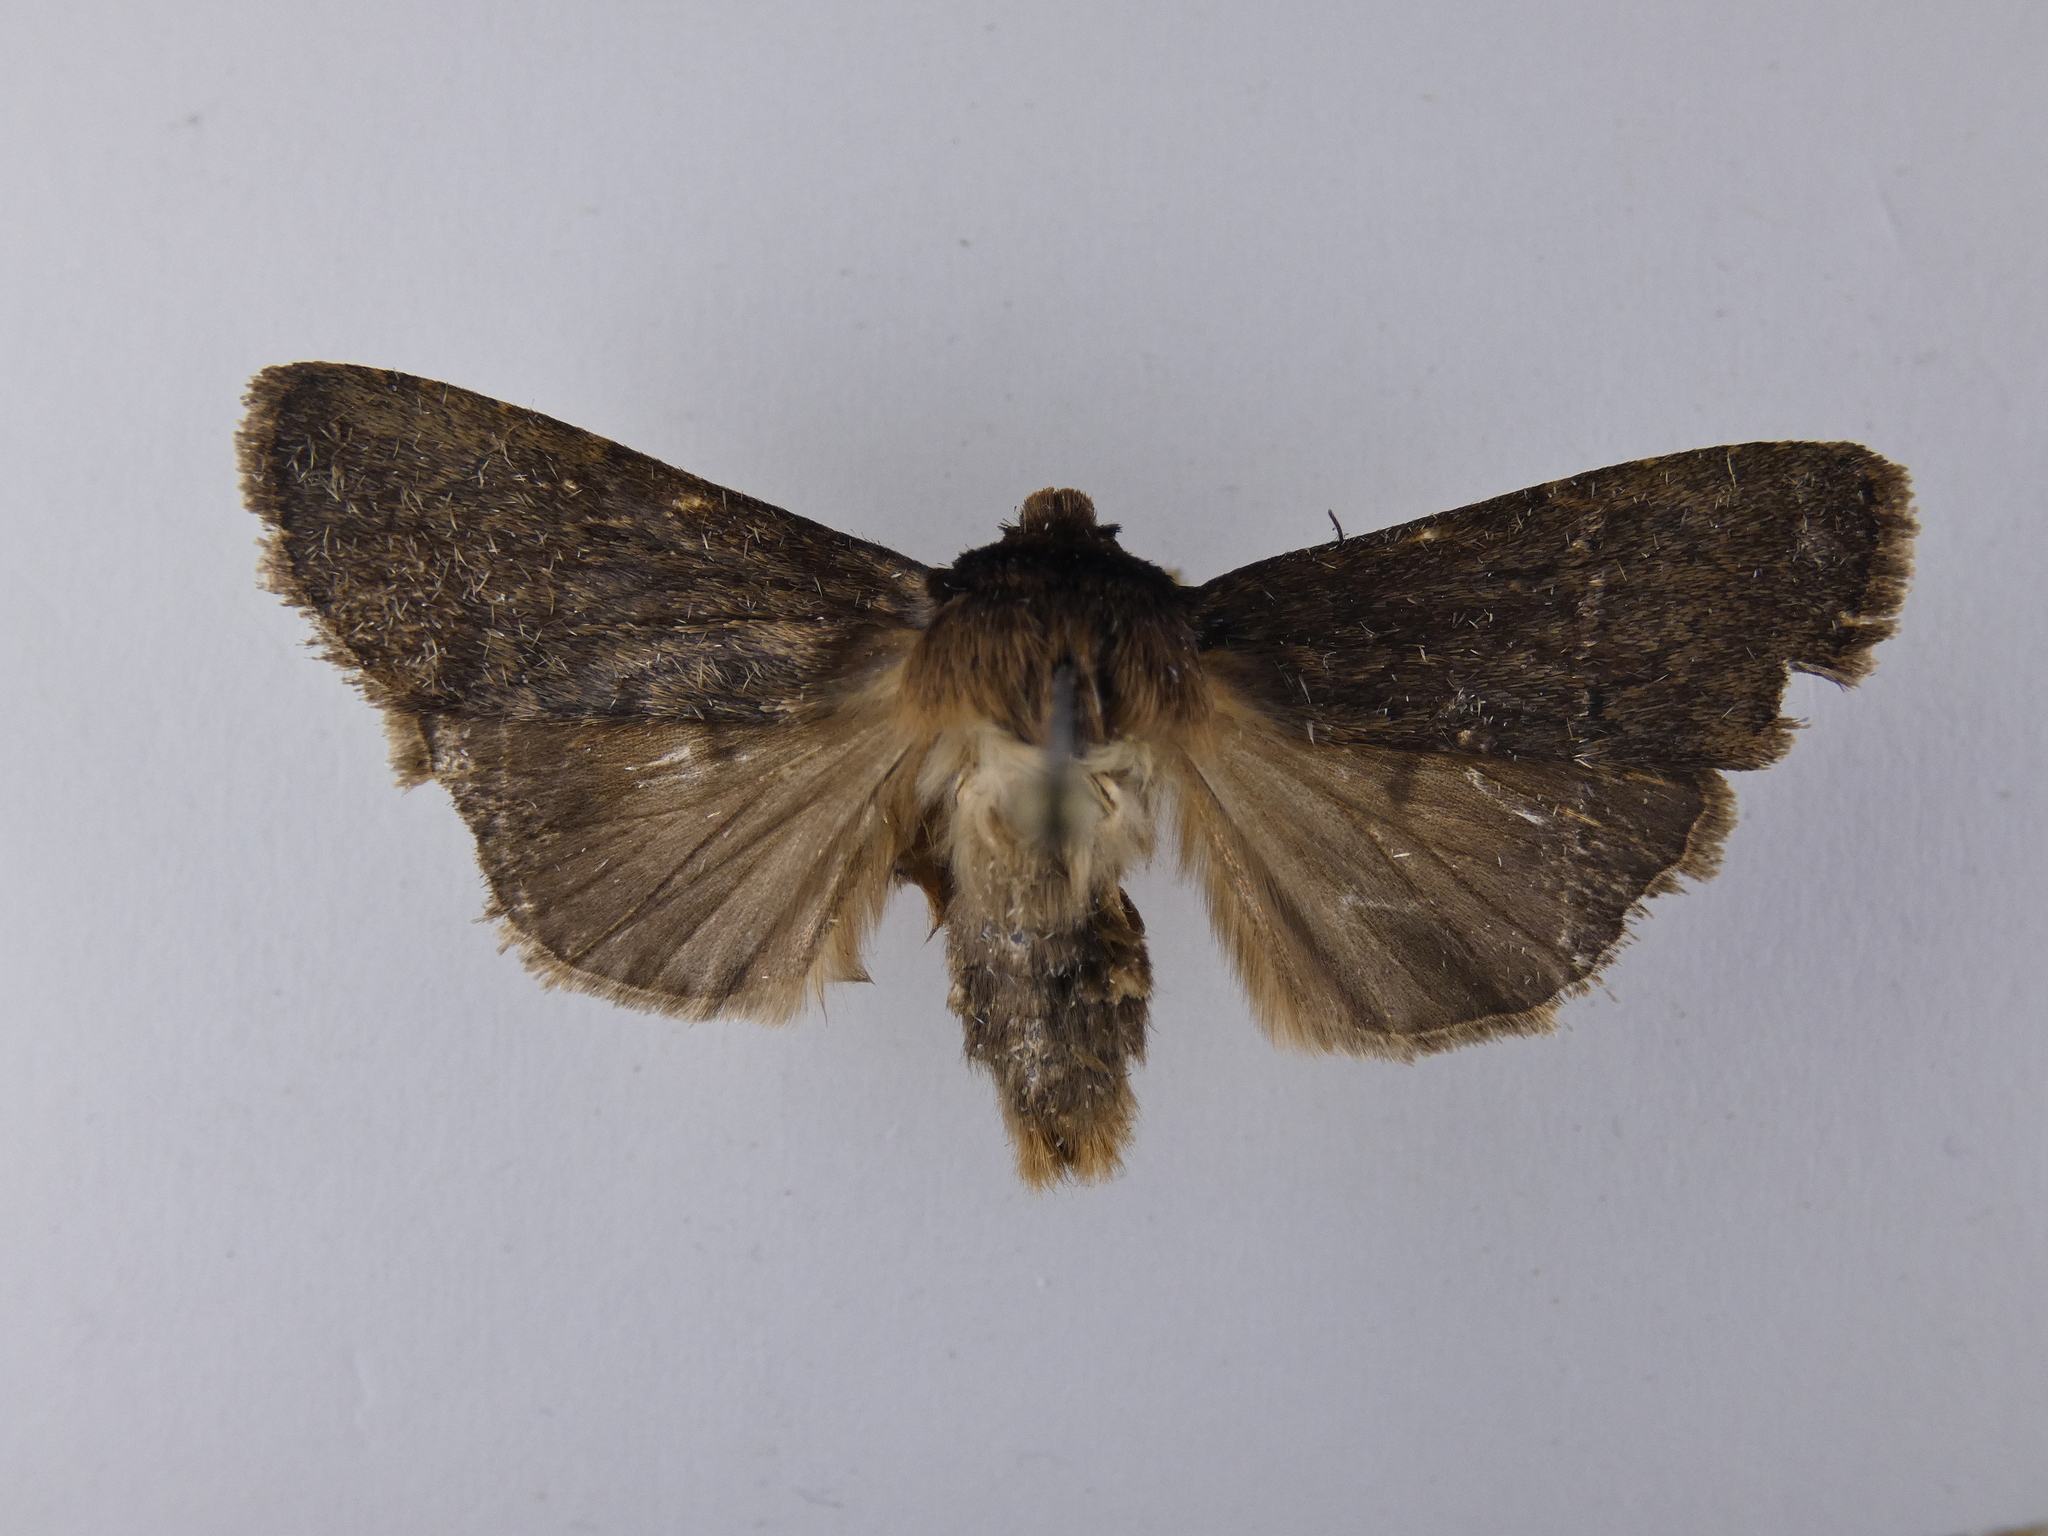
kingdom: Animalia
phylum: Arthropoda
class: Insecta
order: Lepidoptera
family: Noctuidae
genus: Bityla
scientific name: Bityla defigurata
